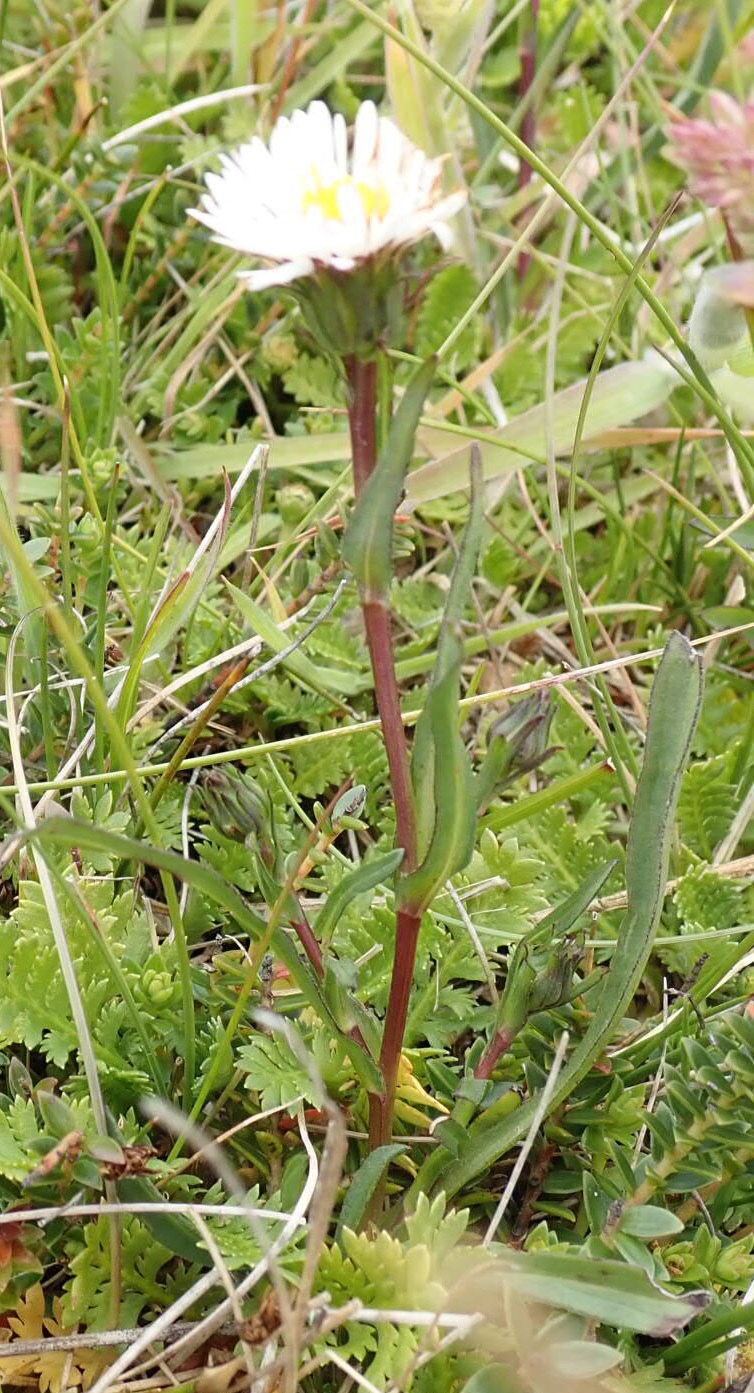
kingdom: Plantae
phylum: Tracheophyta
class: Magnoliopsida
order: Asterales
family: Asteraceae
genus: Symphyotrichum
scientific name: Symphyotrichum vahlii
